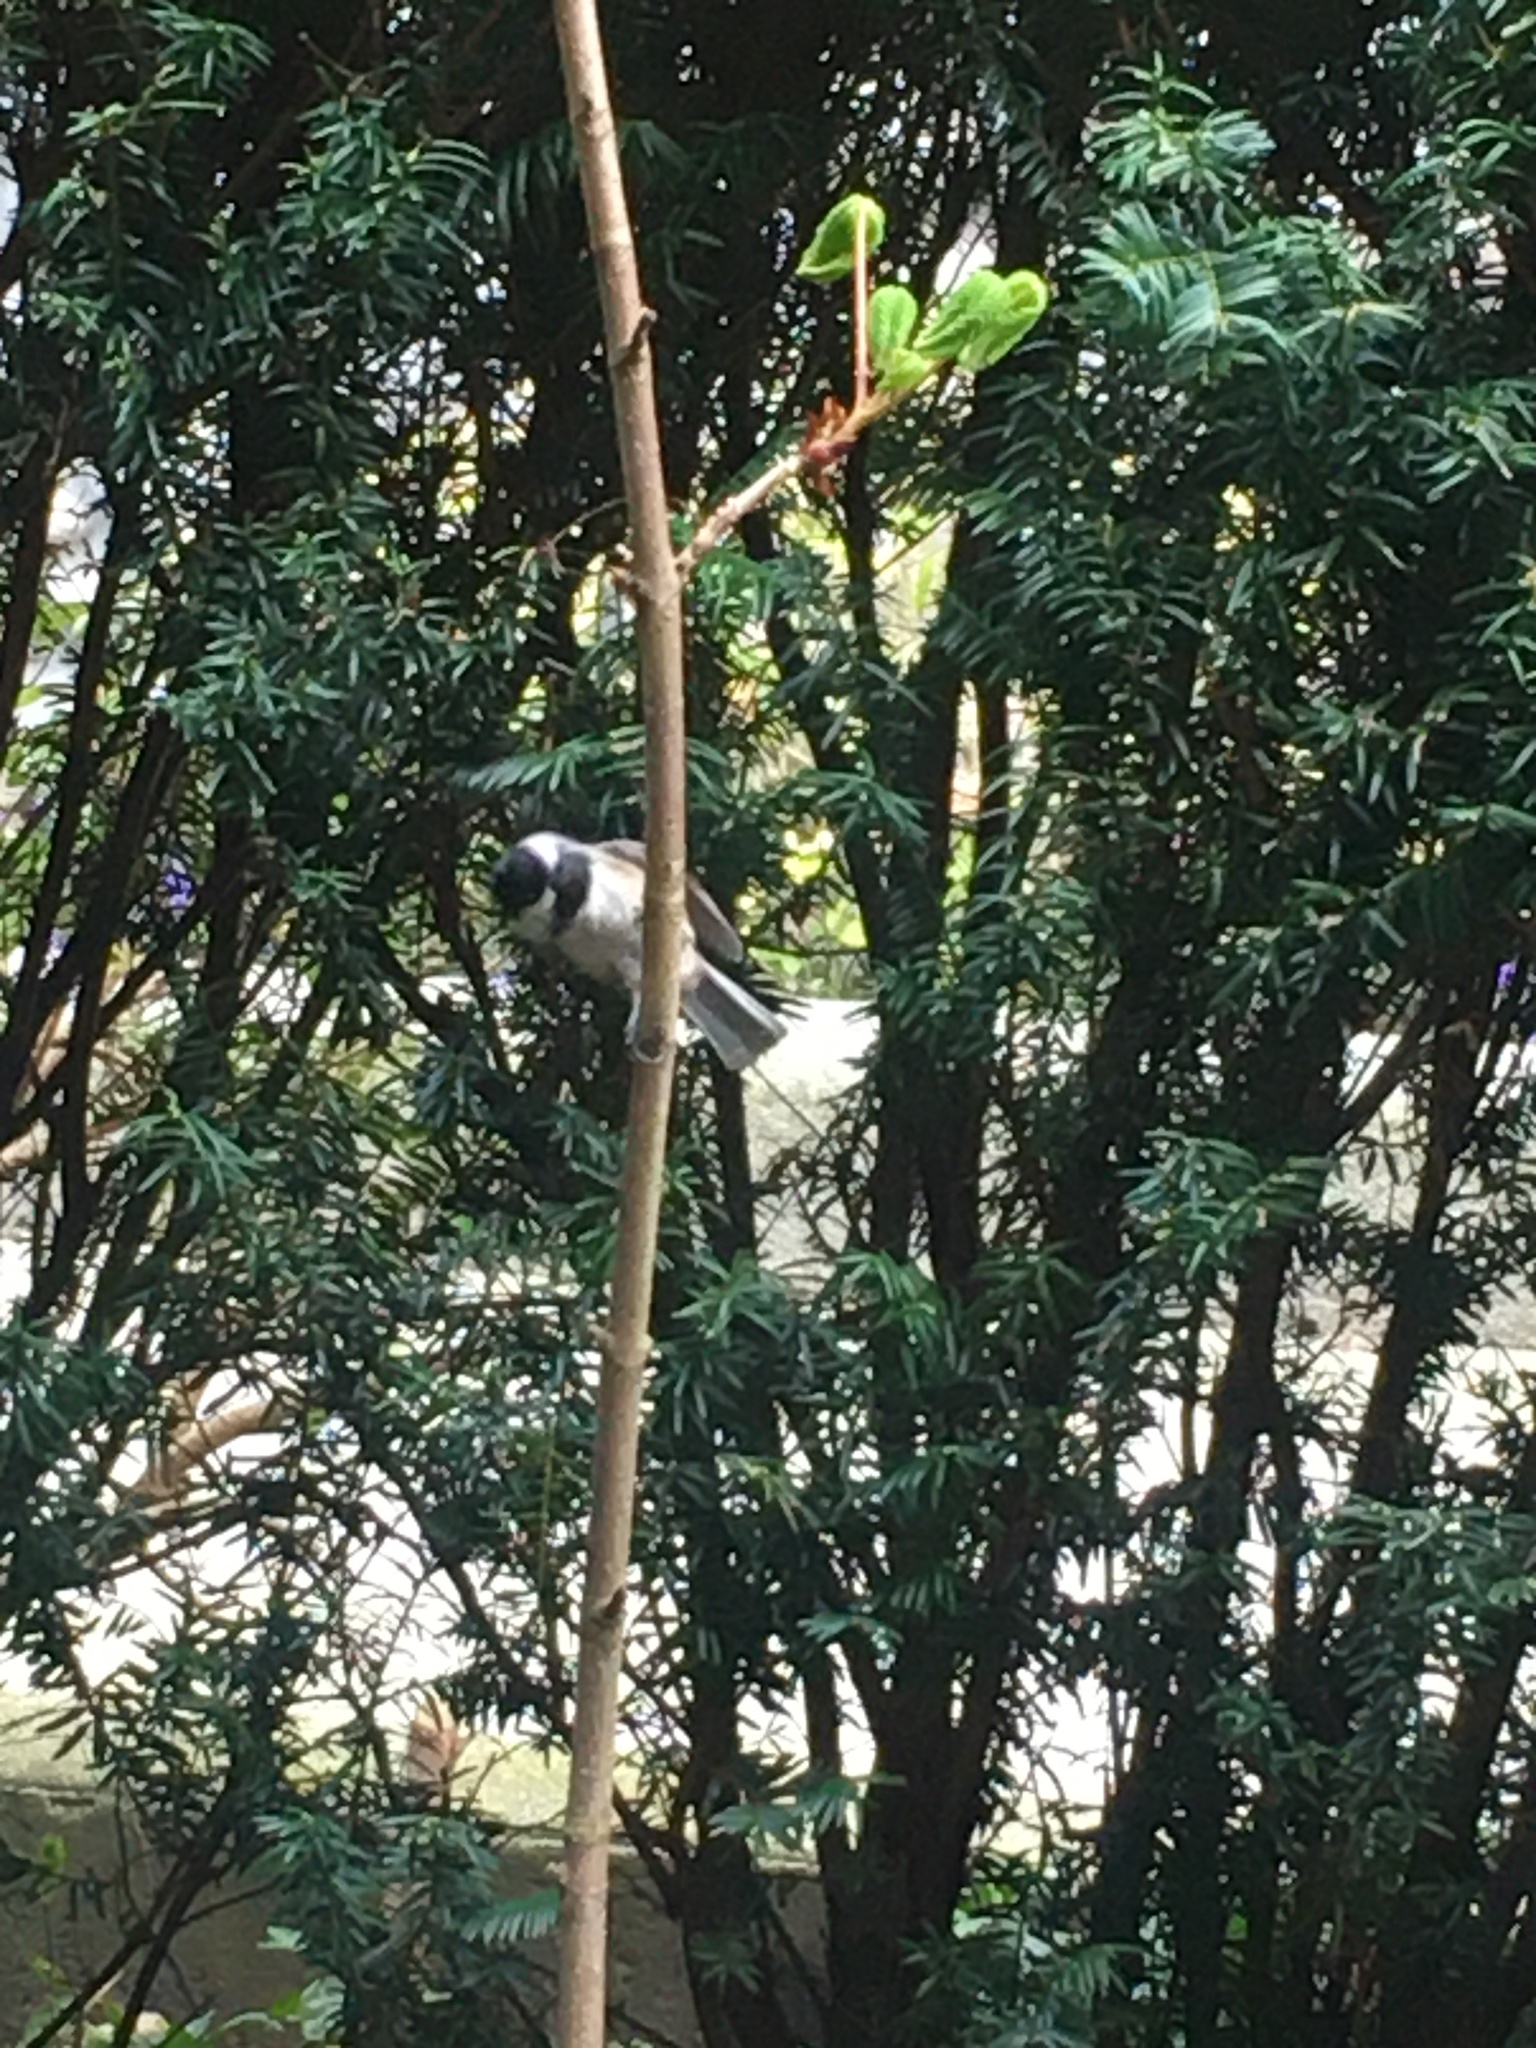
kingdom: Animalia
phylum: Chordata
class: Aves
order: Passeriformes
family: Paridae
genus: Poecile
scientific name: Poecile atricapillus
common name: Black-capped chickadee
